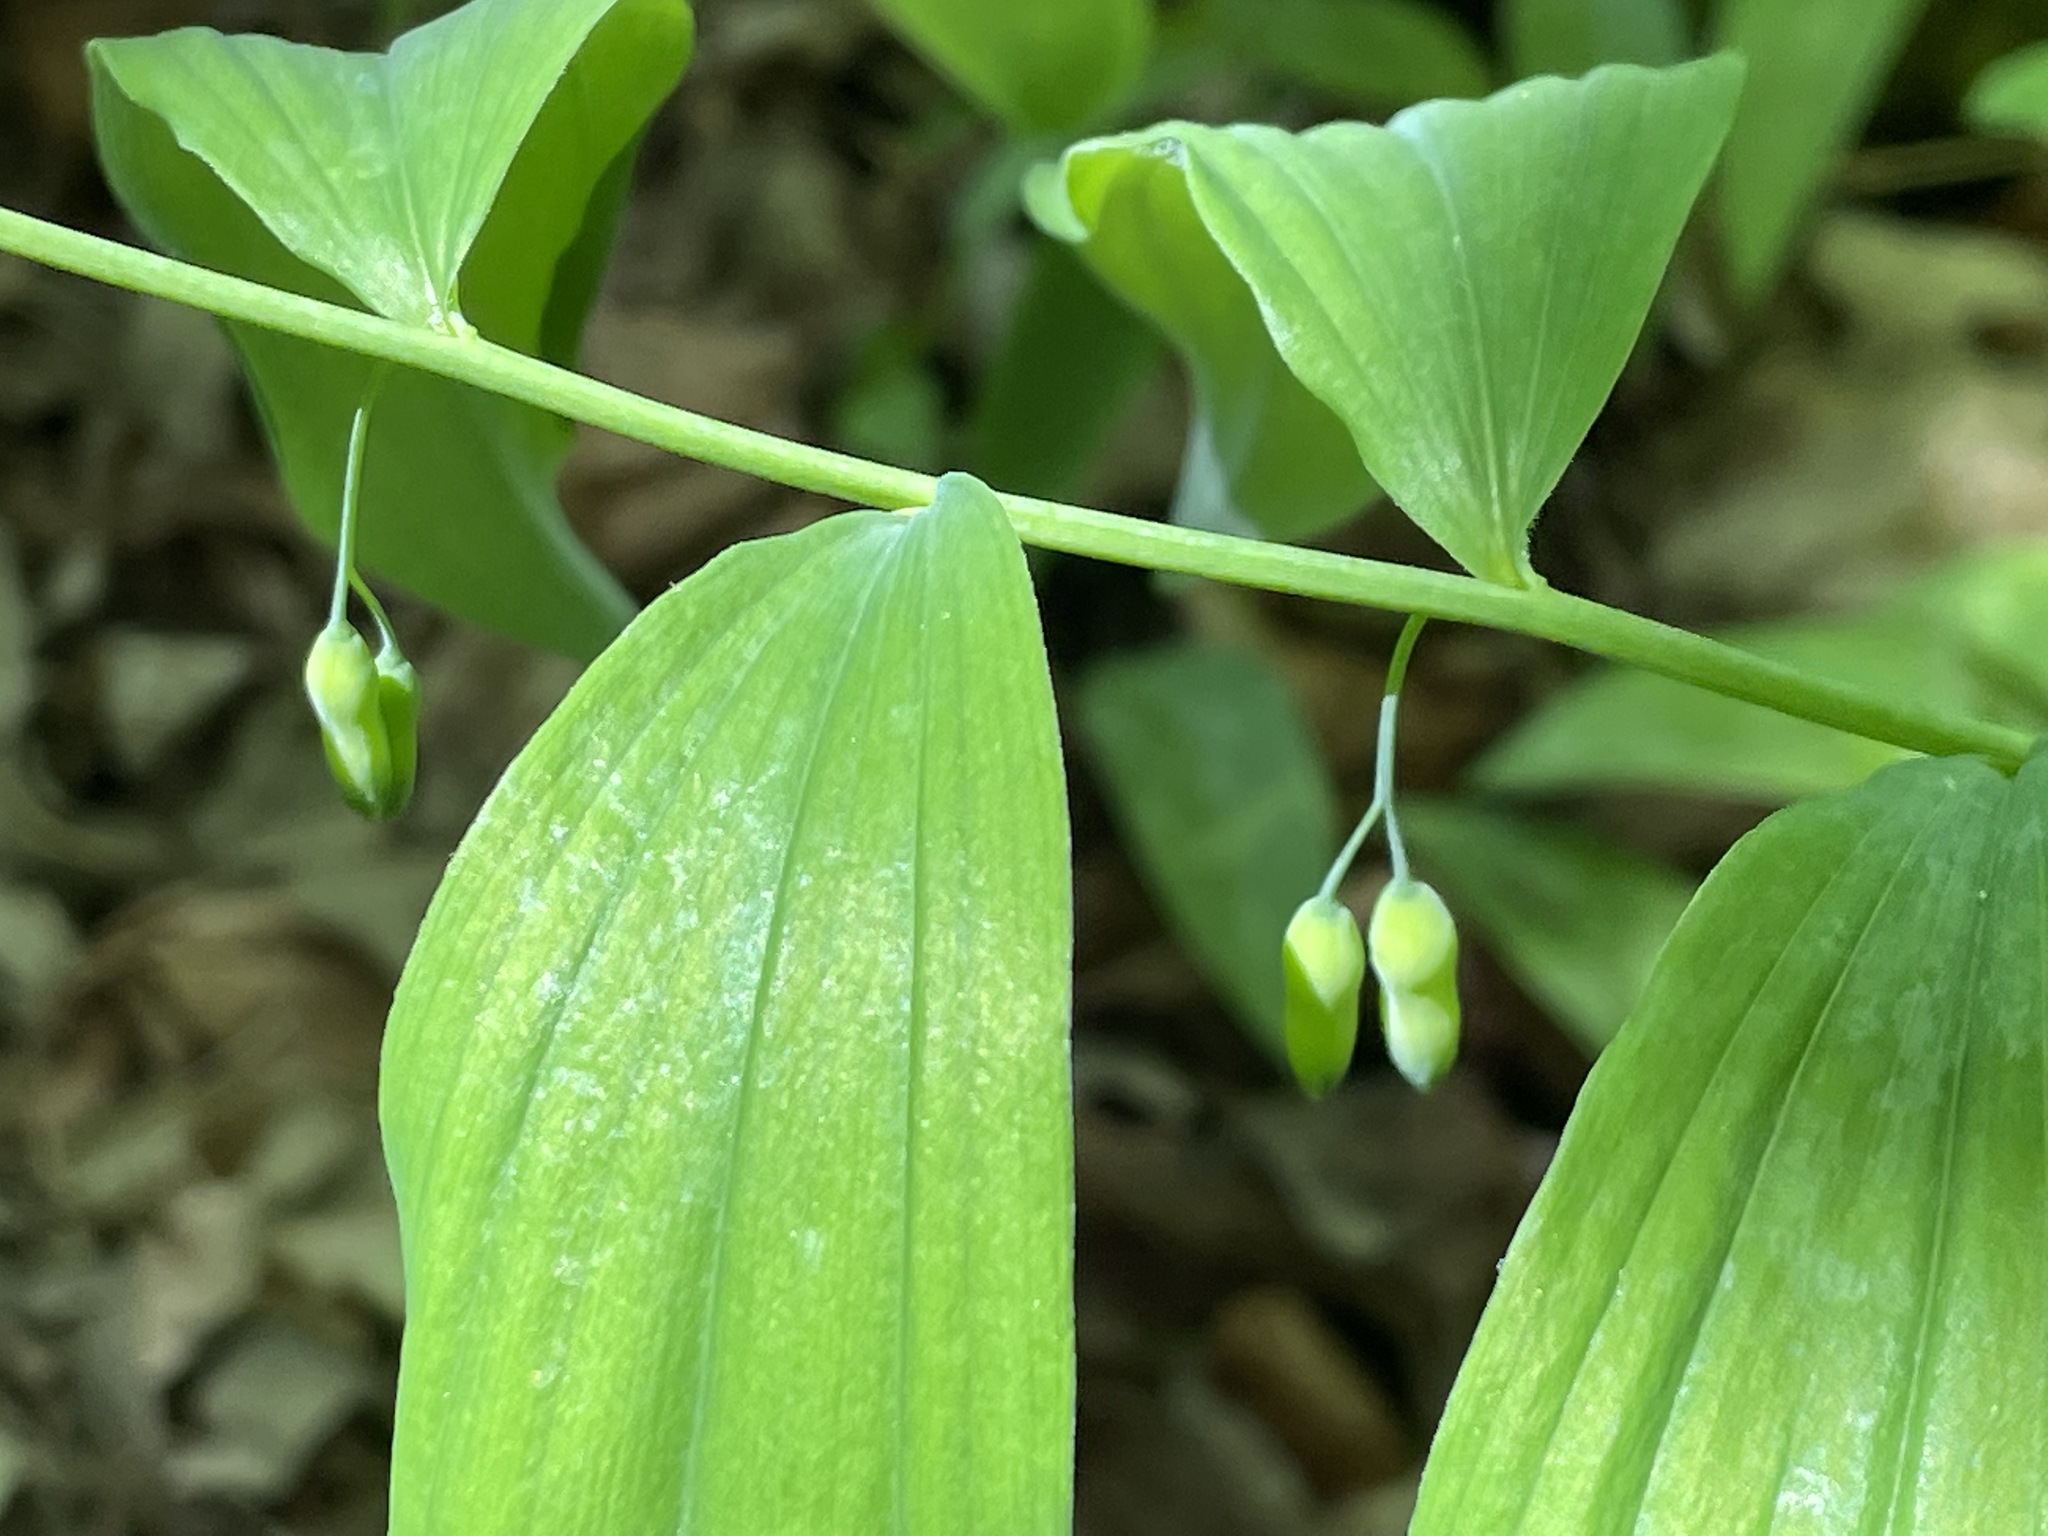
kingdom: Plantae
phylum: Tracheophyta
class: Liliopsida
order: Asparagales
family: Asparagaceae
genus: Polygonatum
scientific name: Polygonatum pubescens
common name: Downy solomon's seal
